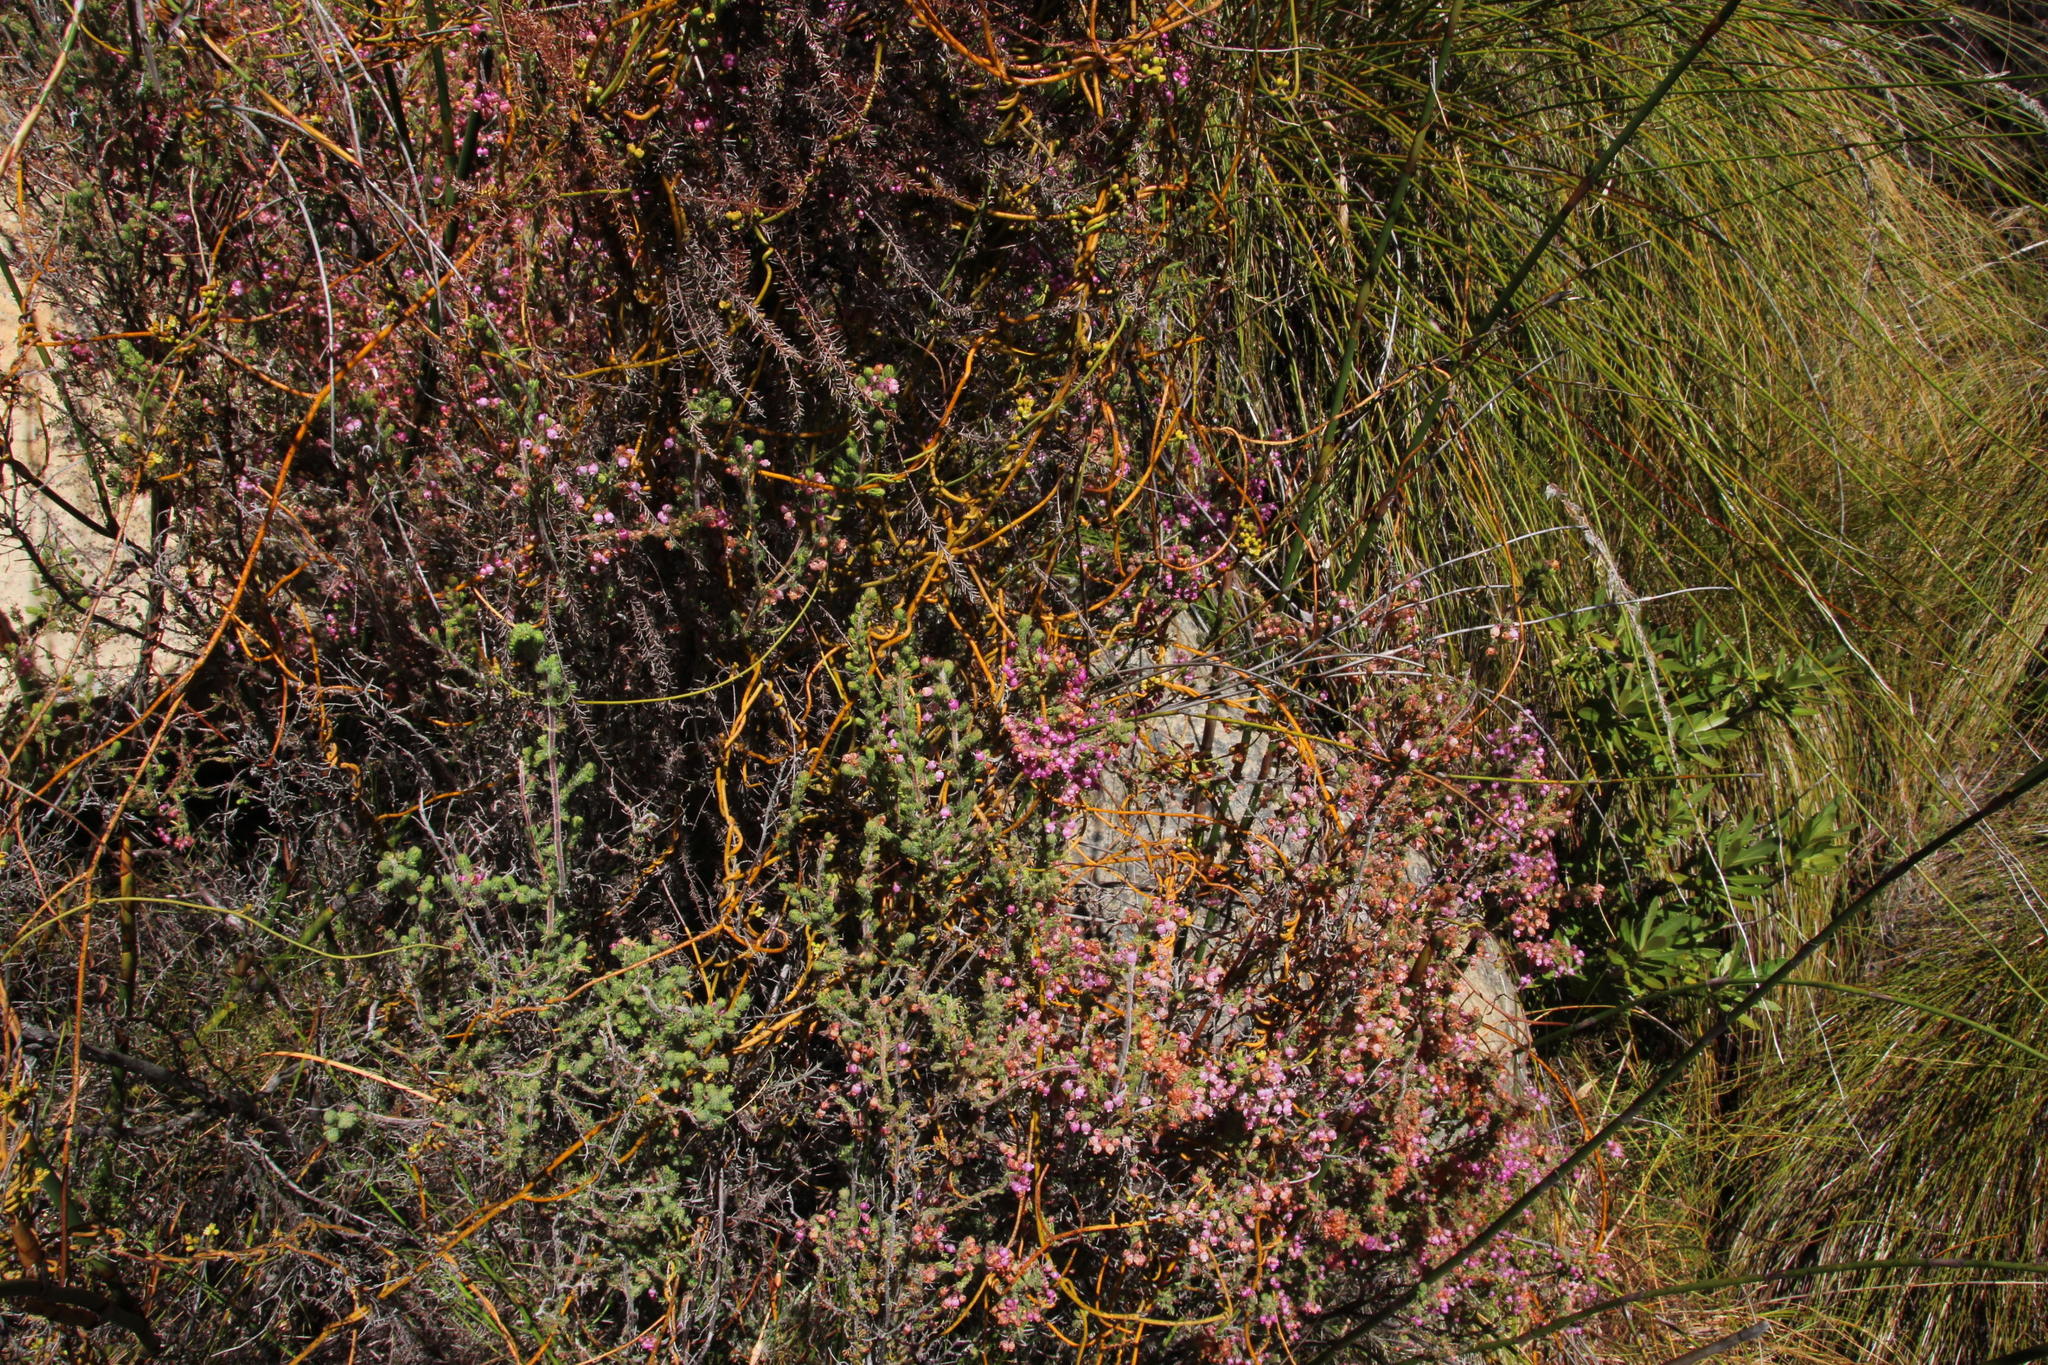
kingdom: Plantae
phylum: Tracheophyta
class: Magnoliopsida
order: Ericales
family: Ericaceae
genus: Erica
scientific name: Erica bergiana
